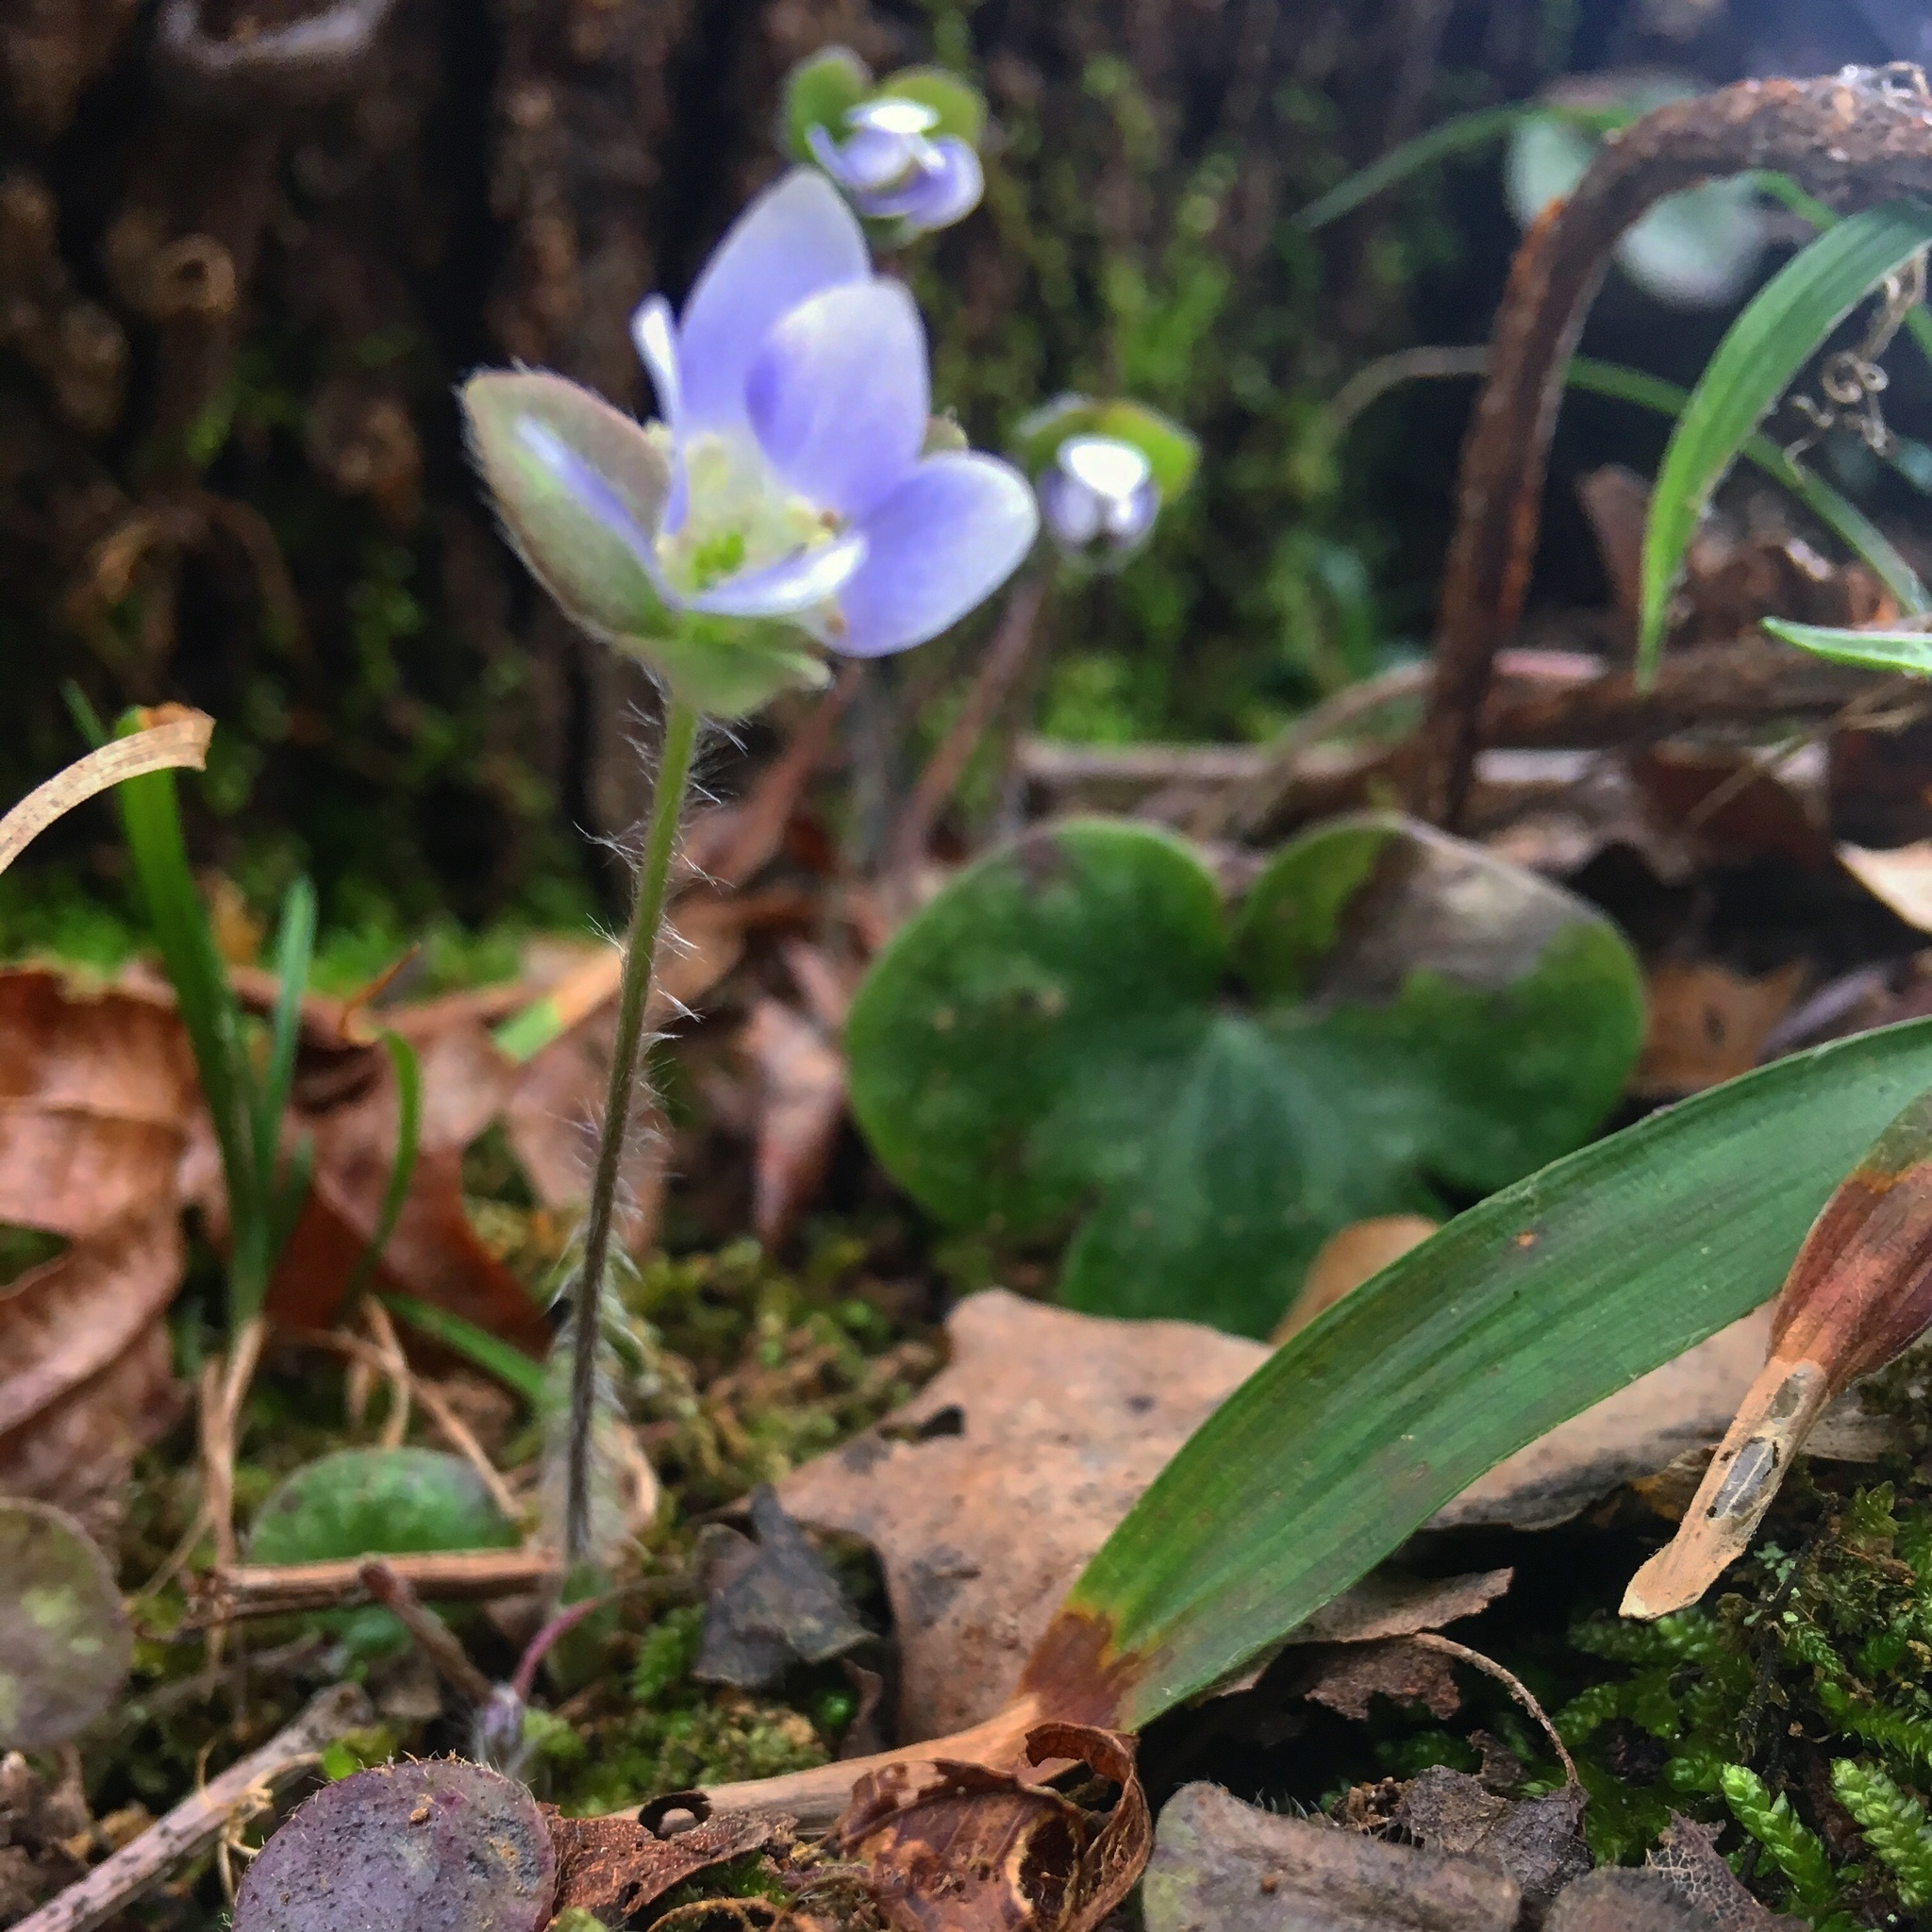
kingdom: Plantae
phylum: Tracheophyta
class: Magnoliopsida
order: Ranunculales
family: Ranunculaceae
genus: Hepatica
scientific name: Hepatica americana
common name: American hepatica
